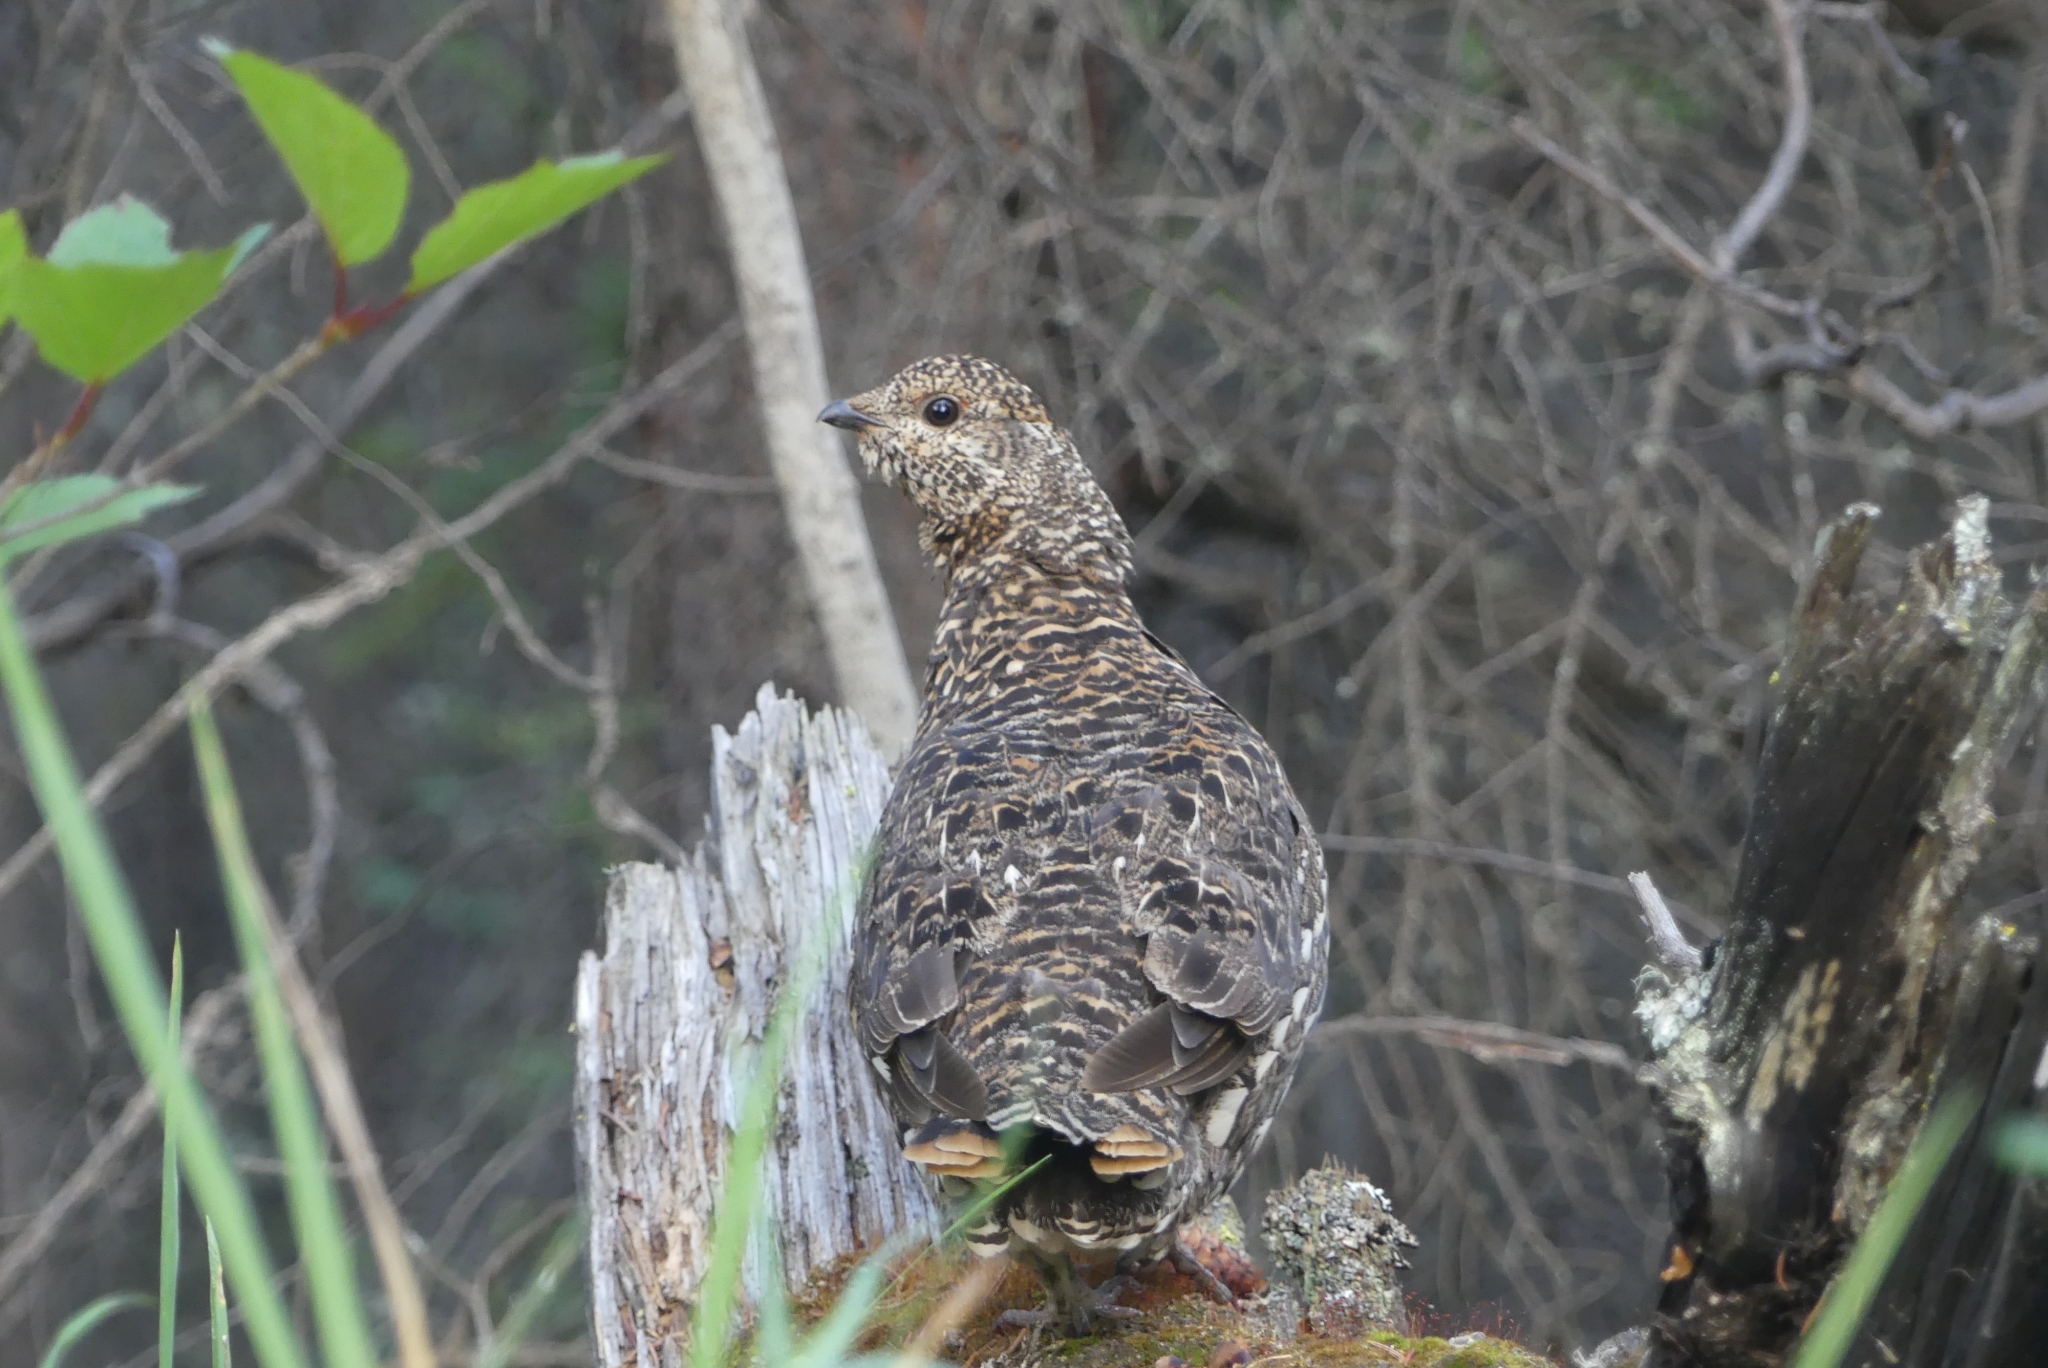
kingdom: Animalia
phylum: Chordata
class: Aves
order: Galliformes
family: Phasianidae
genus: Canachites
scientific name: Canachites canadensis
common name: Spruce grouse
